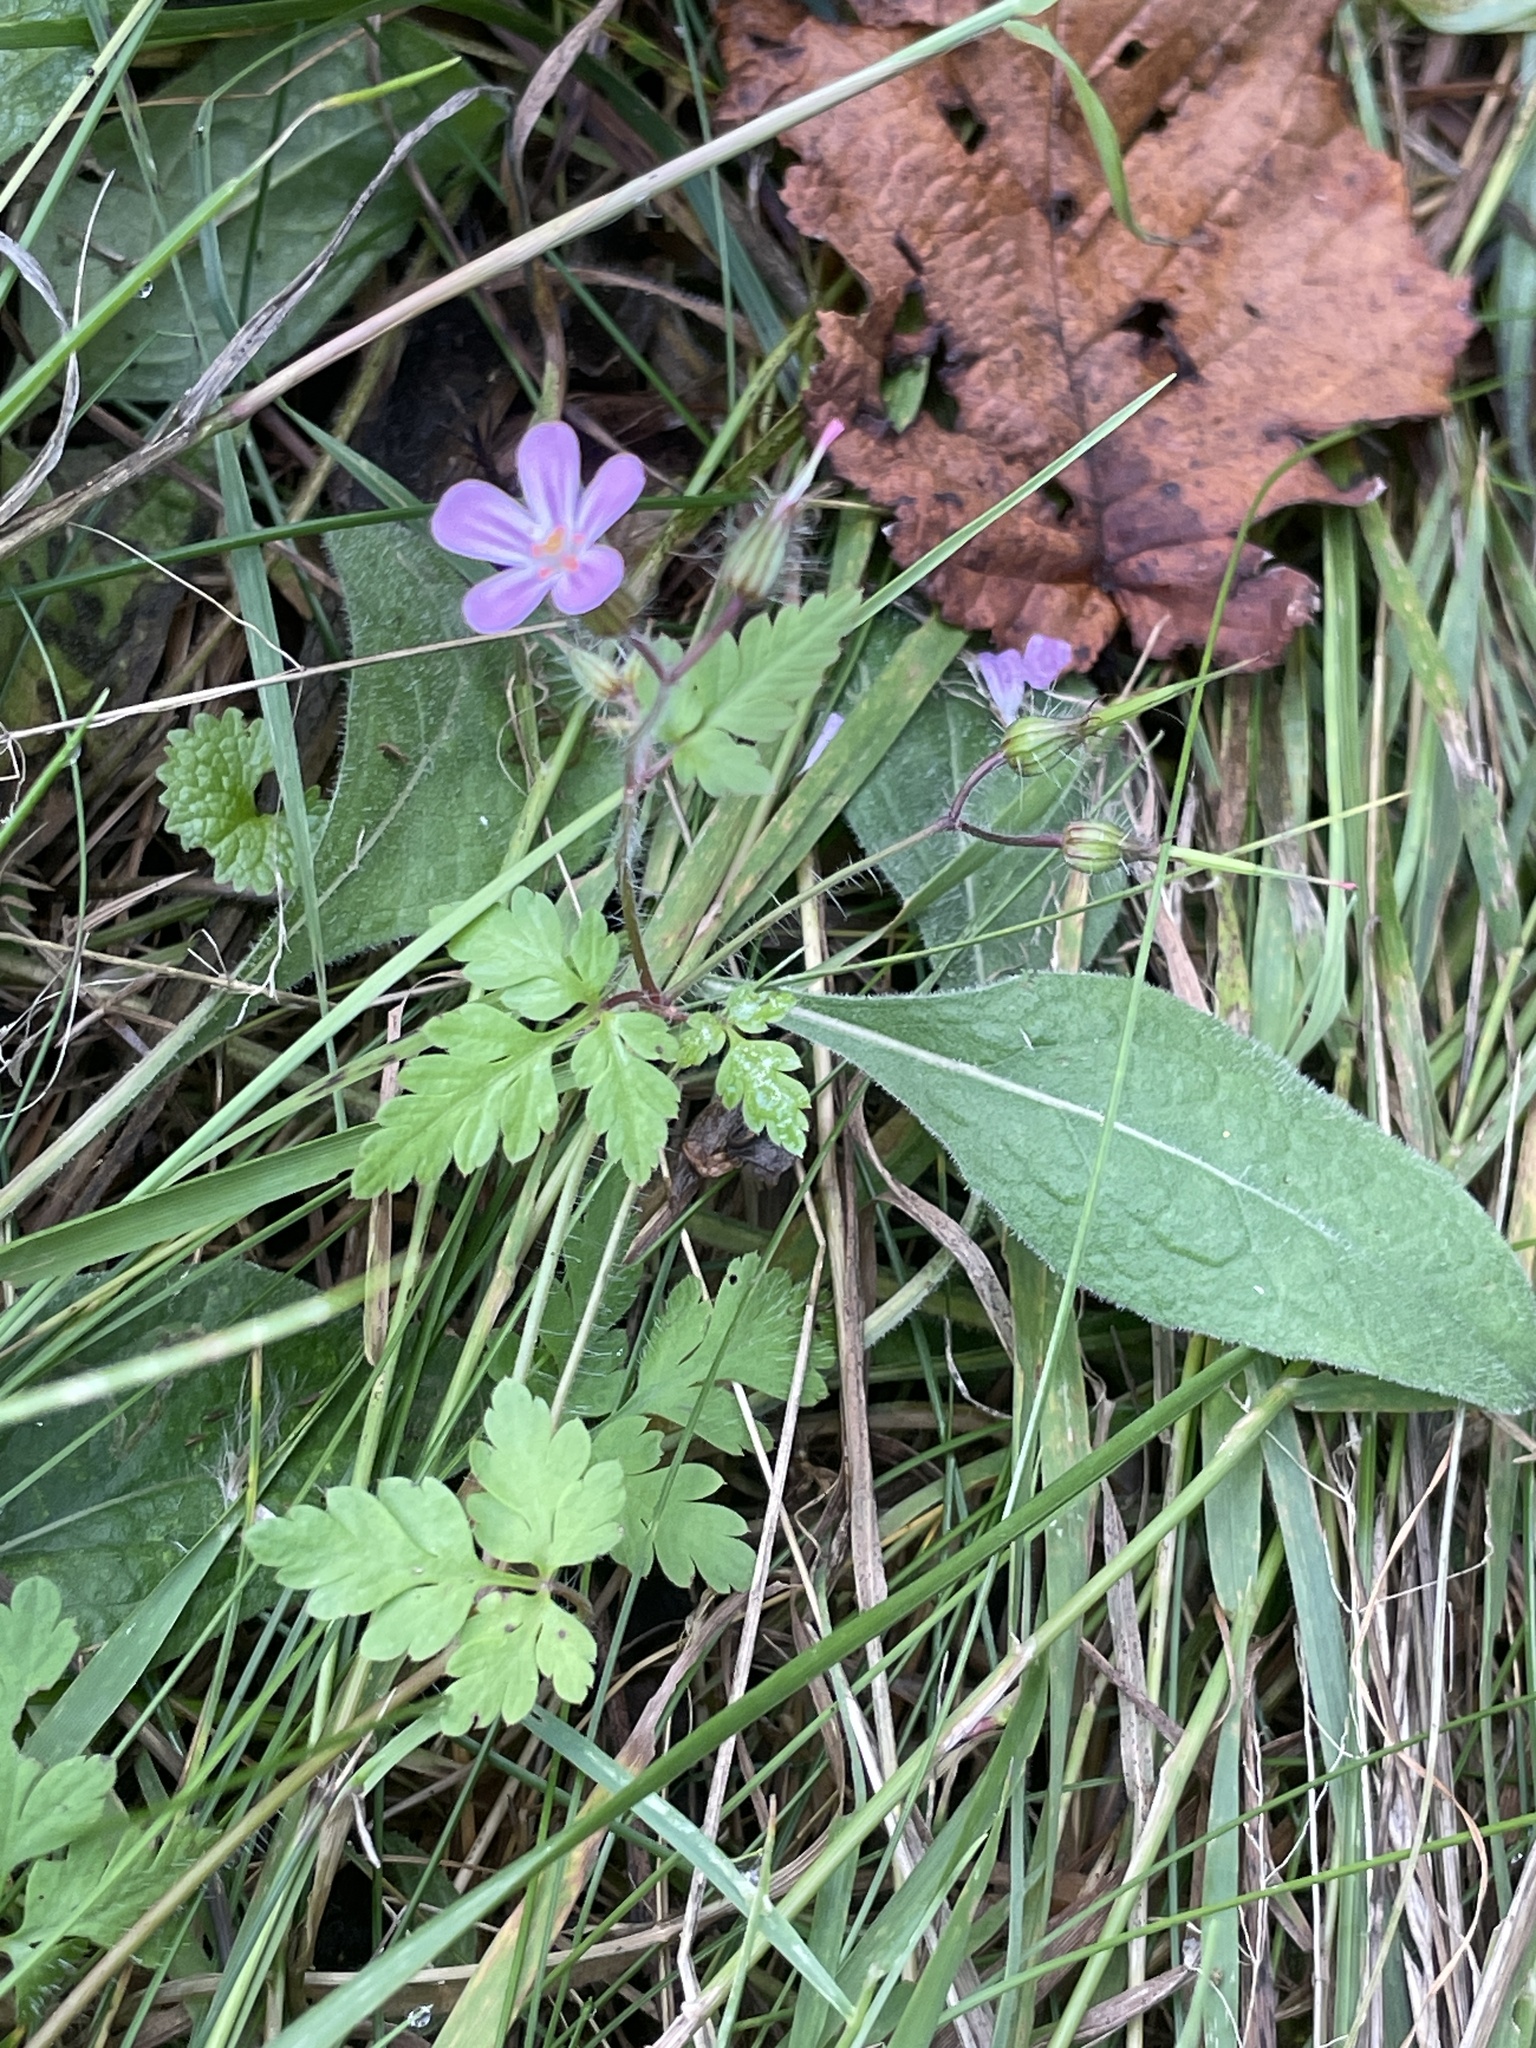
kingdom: Plantae
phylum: Tracheophyta
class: Magnoliopsida
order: Geraniales
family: Geraniaceae
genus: Geranium
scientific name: Geranium robertianum
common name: Herb-robert
